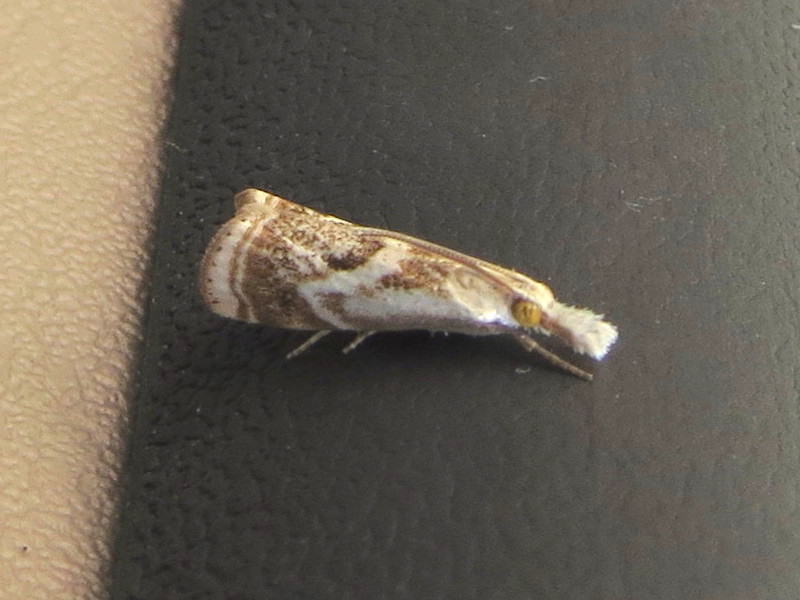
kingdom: Animalia
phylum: Arthropoda
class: Insecta
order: Lepidoptera
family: Crambidae
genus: Microcrambus
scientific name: Microcrambus elegans
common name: Elegant grass-veneer
